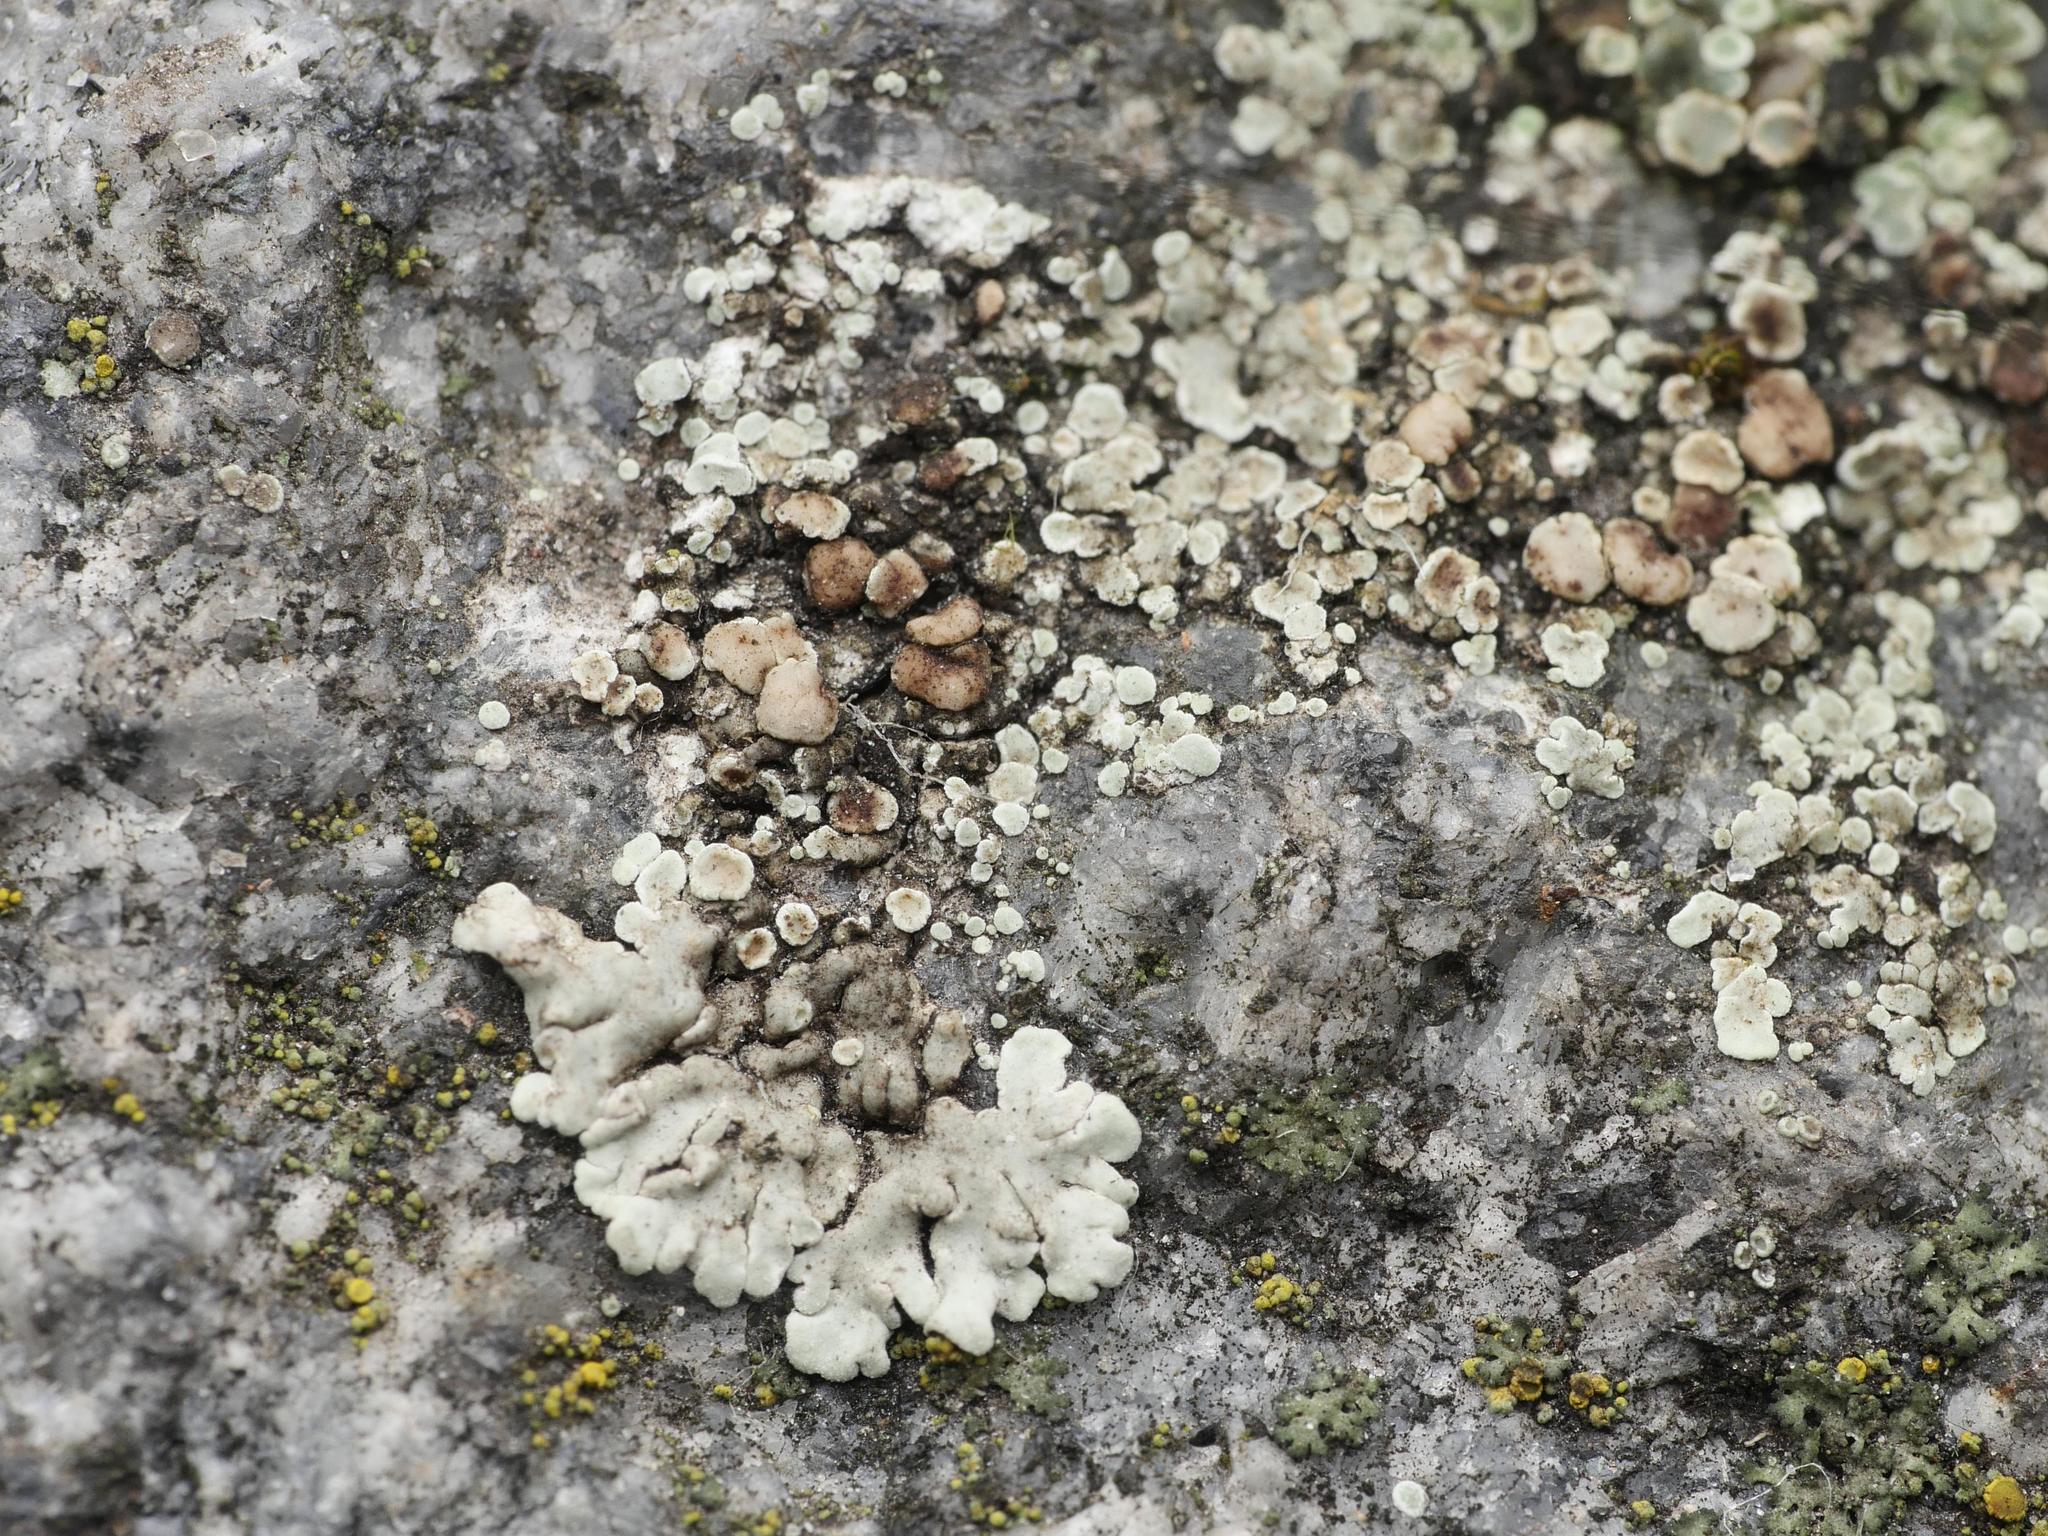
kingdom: Fungi
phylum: Ascomycota
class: Lecanoromycetes
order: Lecanorales
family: Lecanoraceae
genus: Protoparmeliopsis
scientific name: Protoparmeliopsis muralis
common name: Stonewall rim lichen
